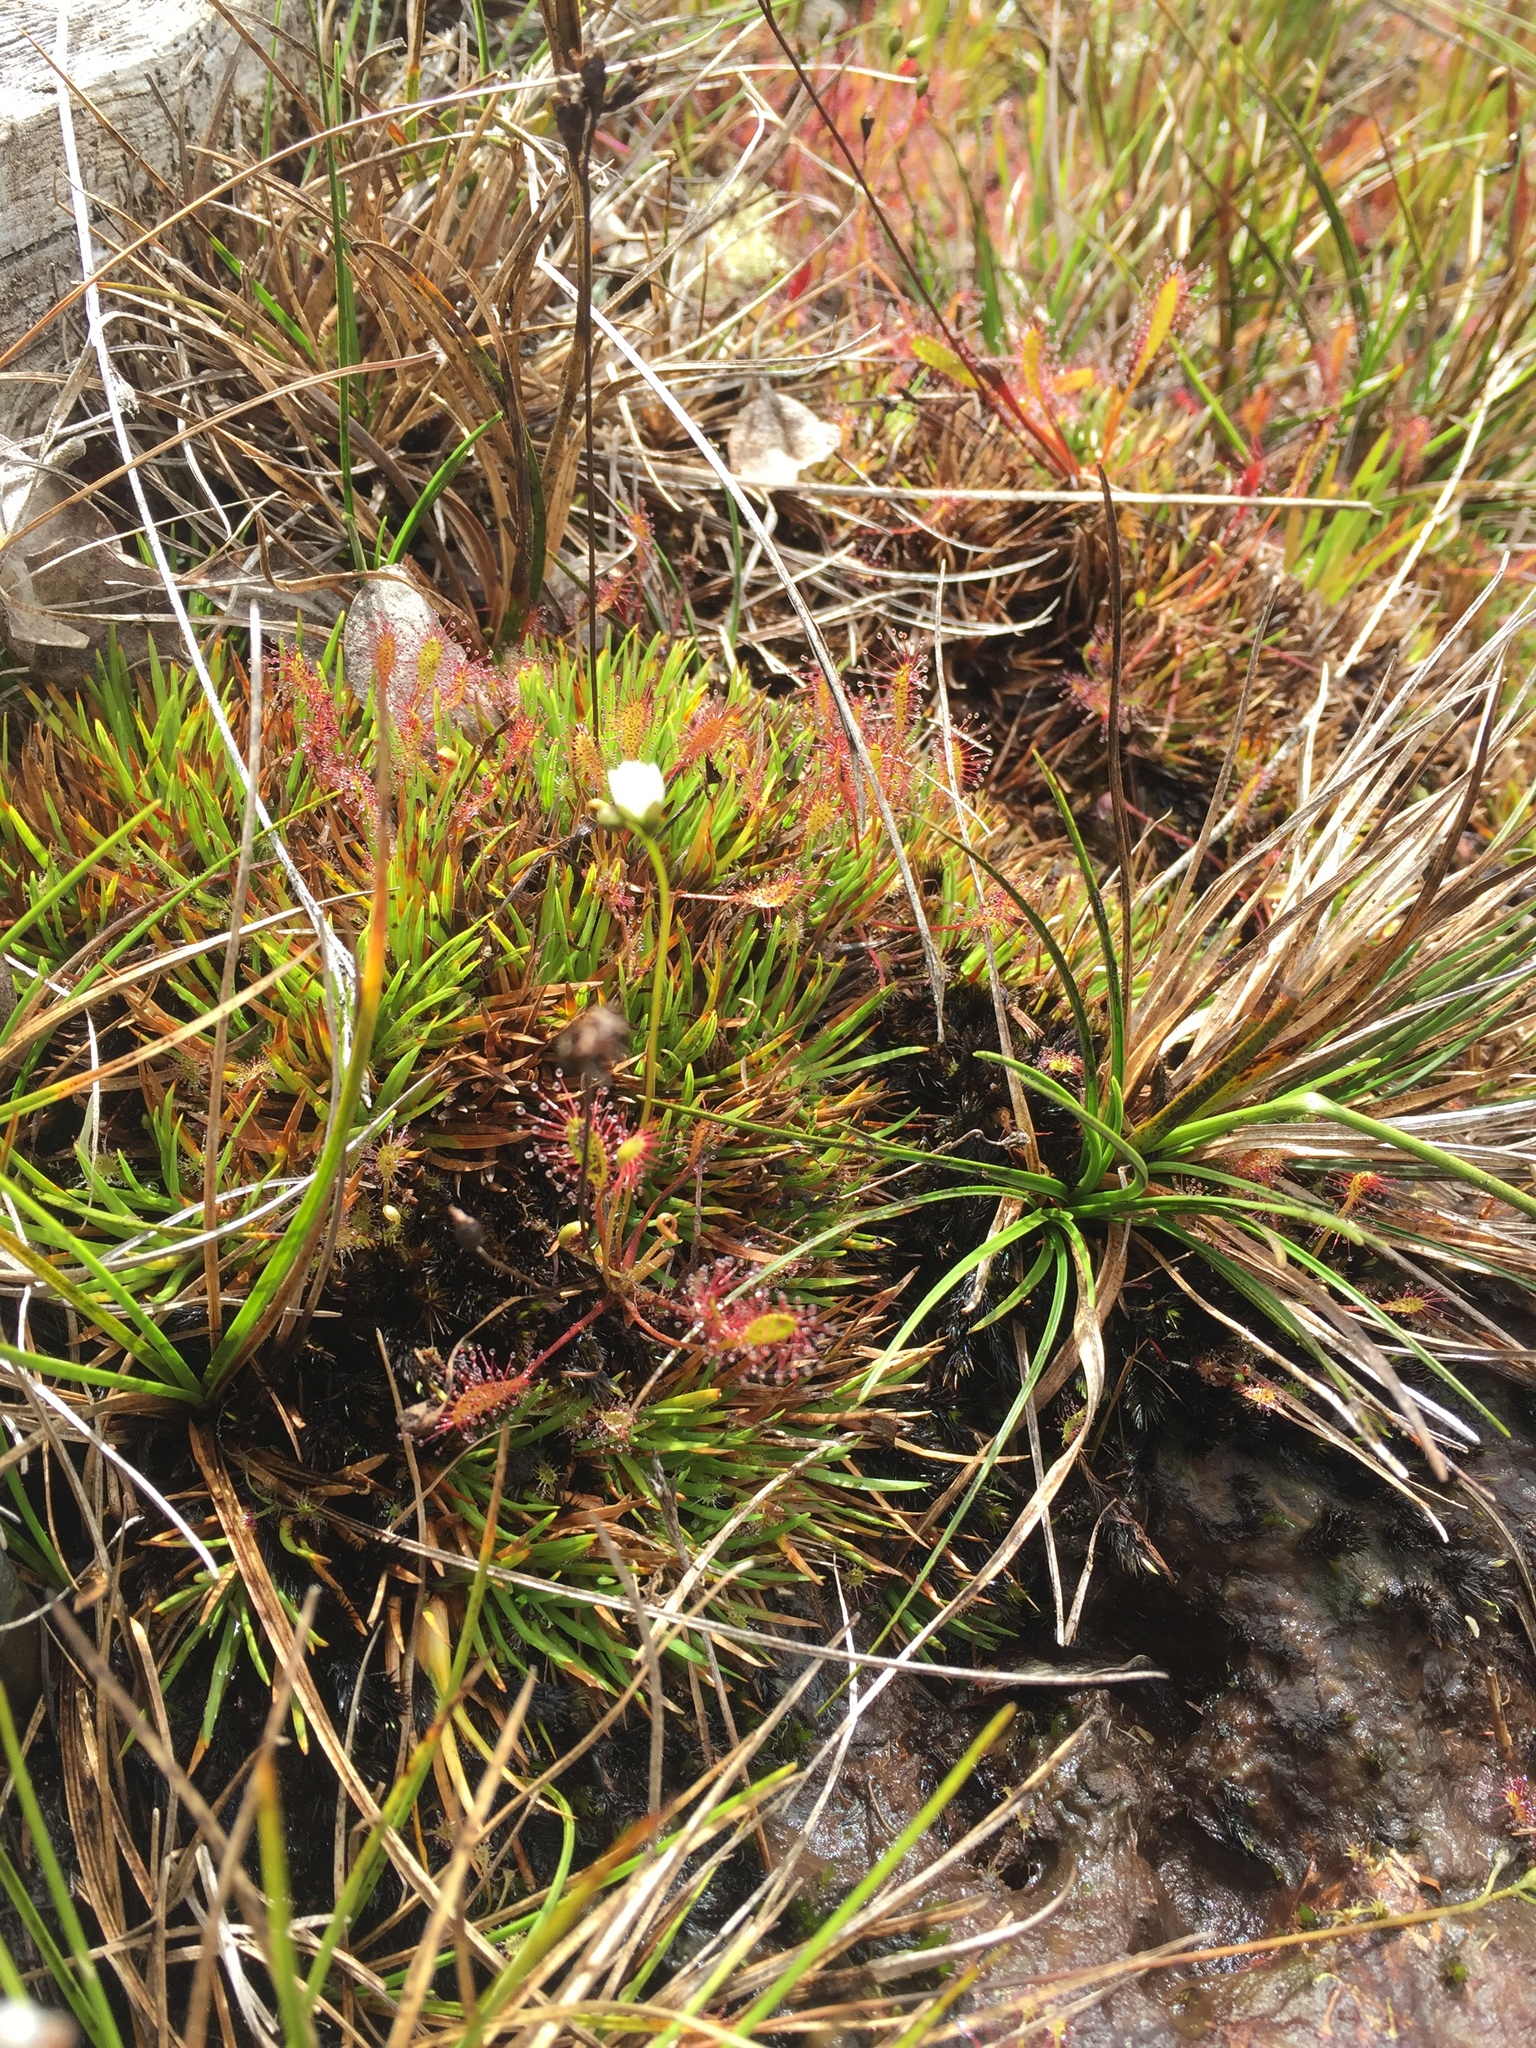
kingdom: Plantae
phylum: Tracheophyta
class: Magnoliopsida
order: Caryophyllales
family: Droseraceae
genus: Drosera
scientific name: Drosera anglica
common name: Great sundew
